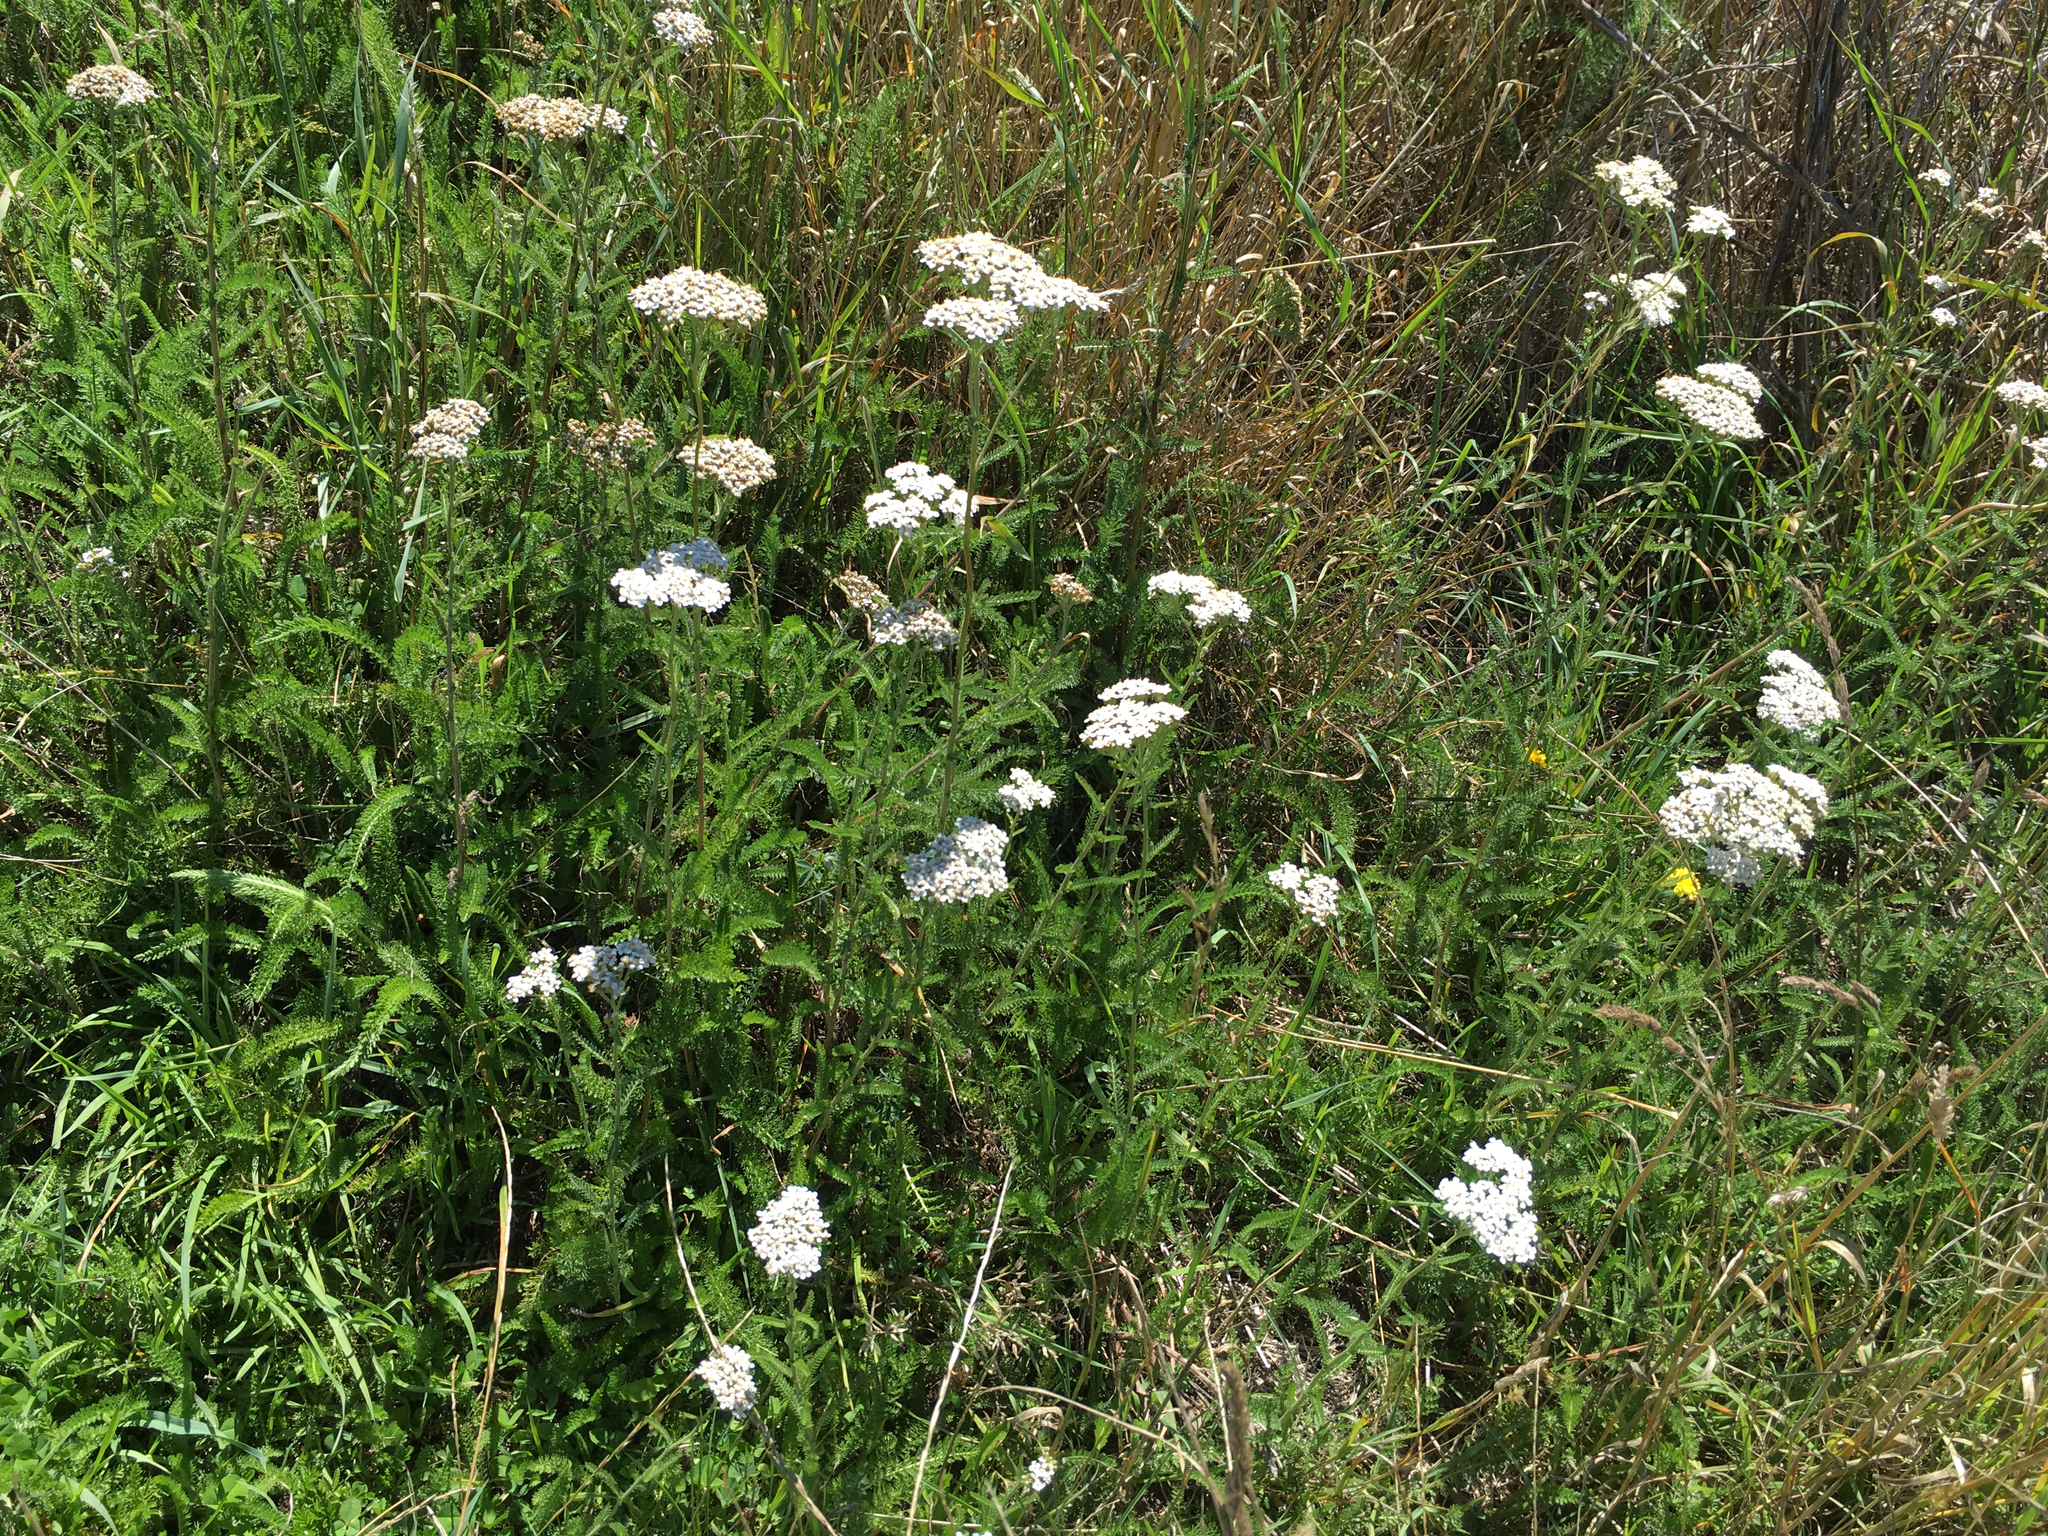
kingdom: Plantae
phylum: Tracheophyta
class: Magnoliopsida
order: Asterales
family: Asteraceae
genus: Achillea
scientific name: Achillea millefolium
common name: Yarrow
